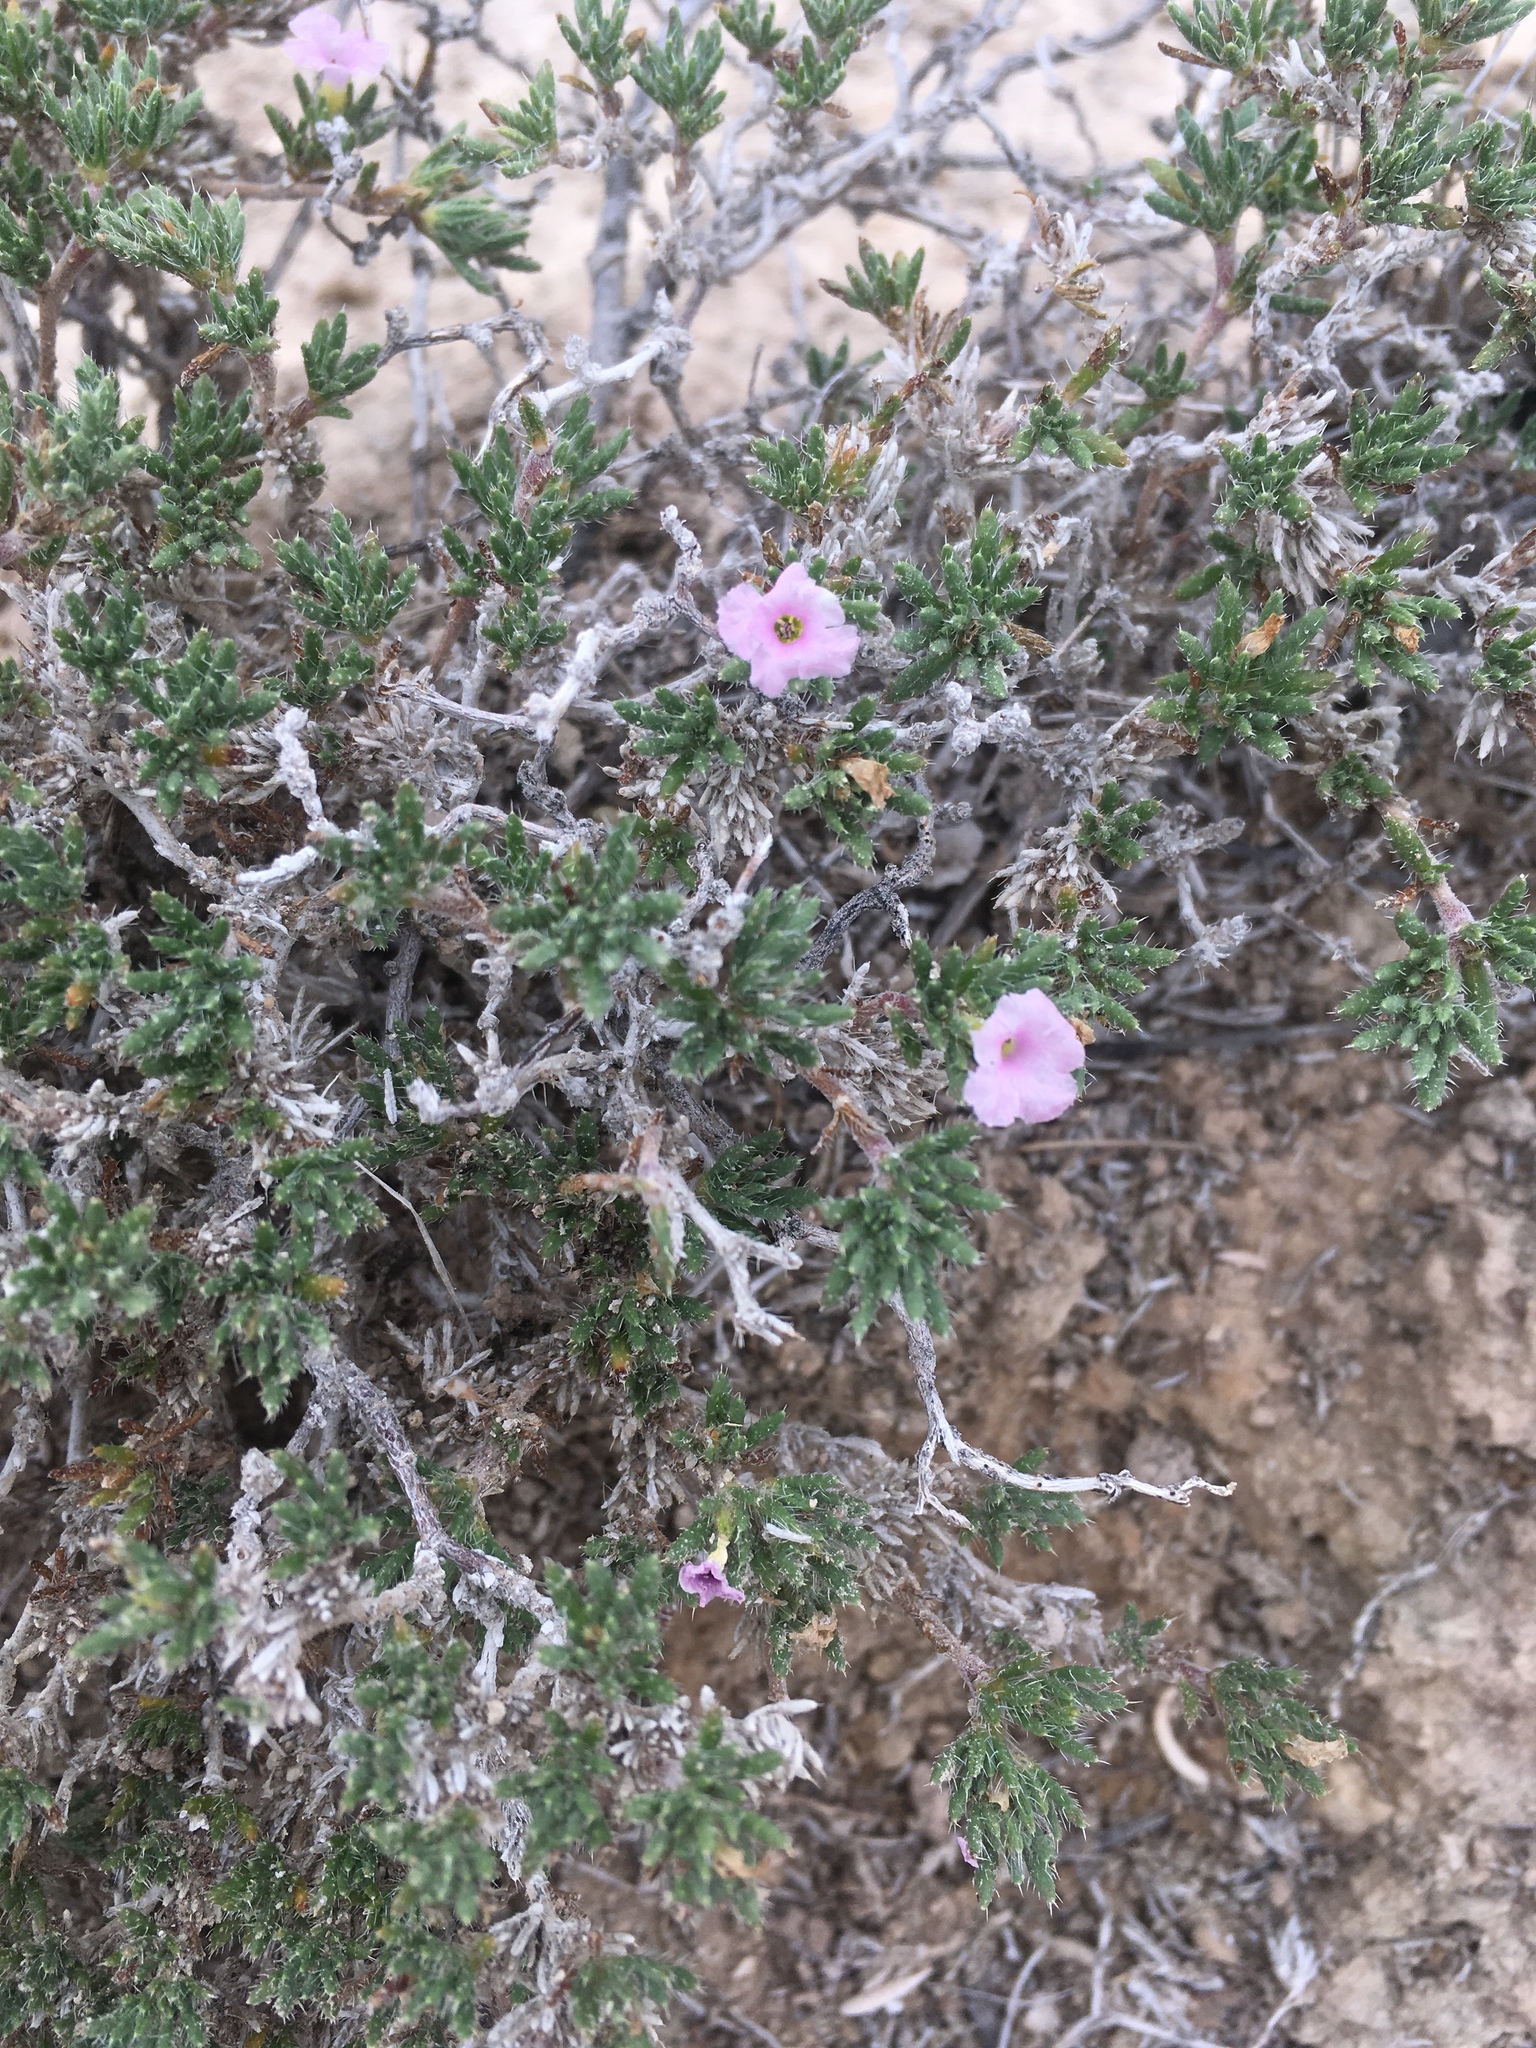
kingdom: Plantae
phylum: Tracheophyta
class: Magnoliopsida
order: Boraginales
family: Ehretiaceae
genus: Tiquilia
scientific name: Tiquilia hispidissima
